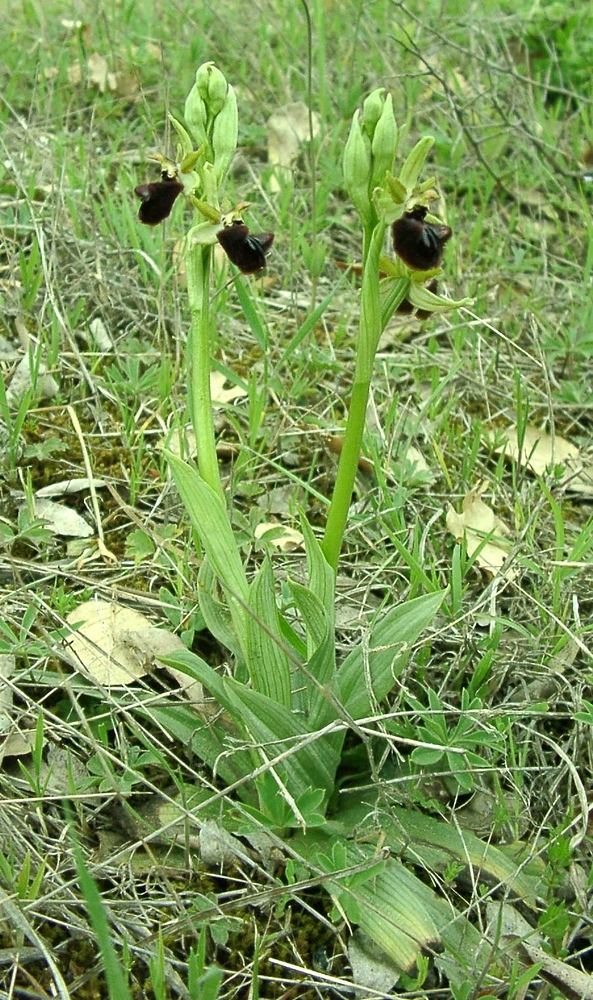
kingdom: Plantae
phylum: Tracheophyta
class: Liliopsida
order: Asparagales
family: Orchidaceae
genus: Ophrys
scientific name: Ophrys sphegodes
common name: Early spider-orchid
